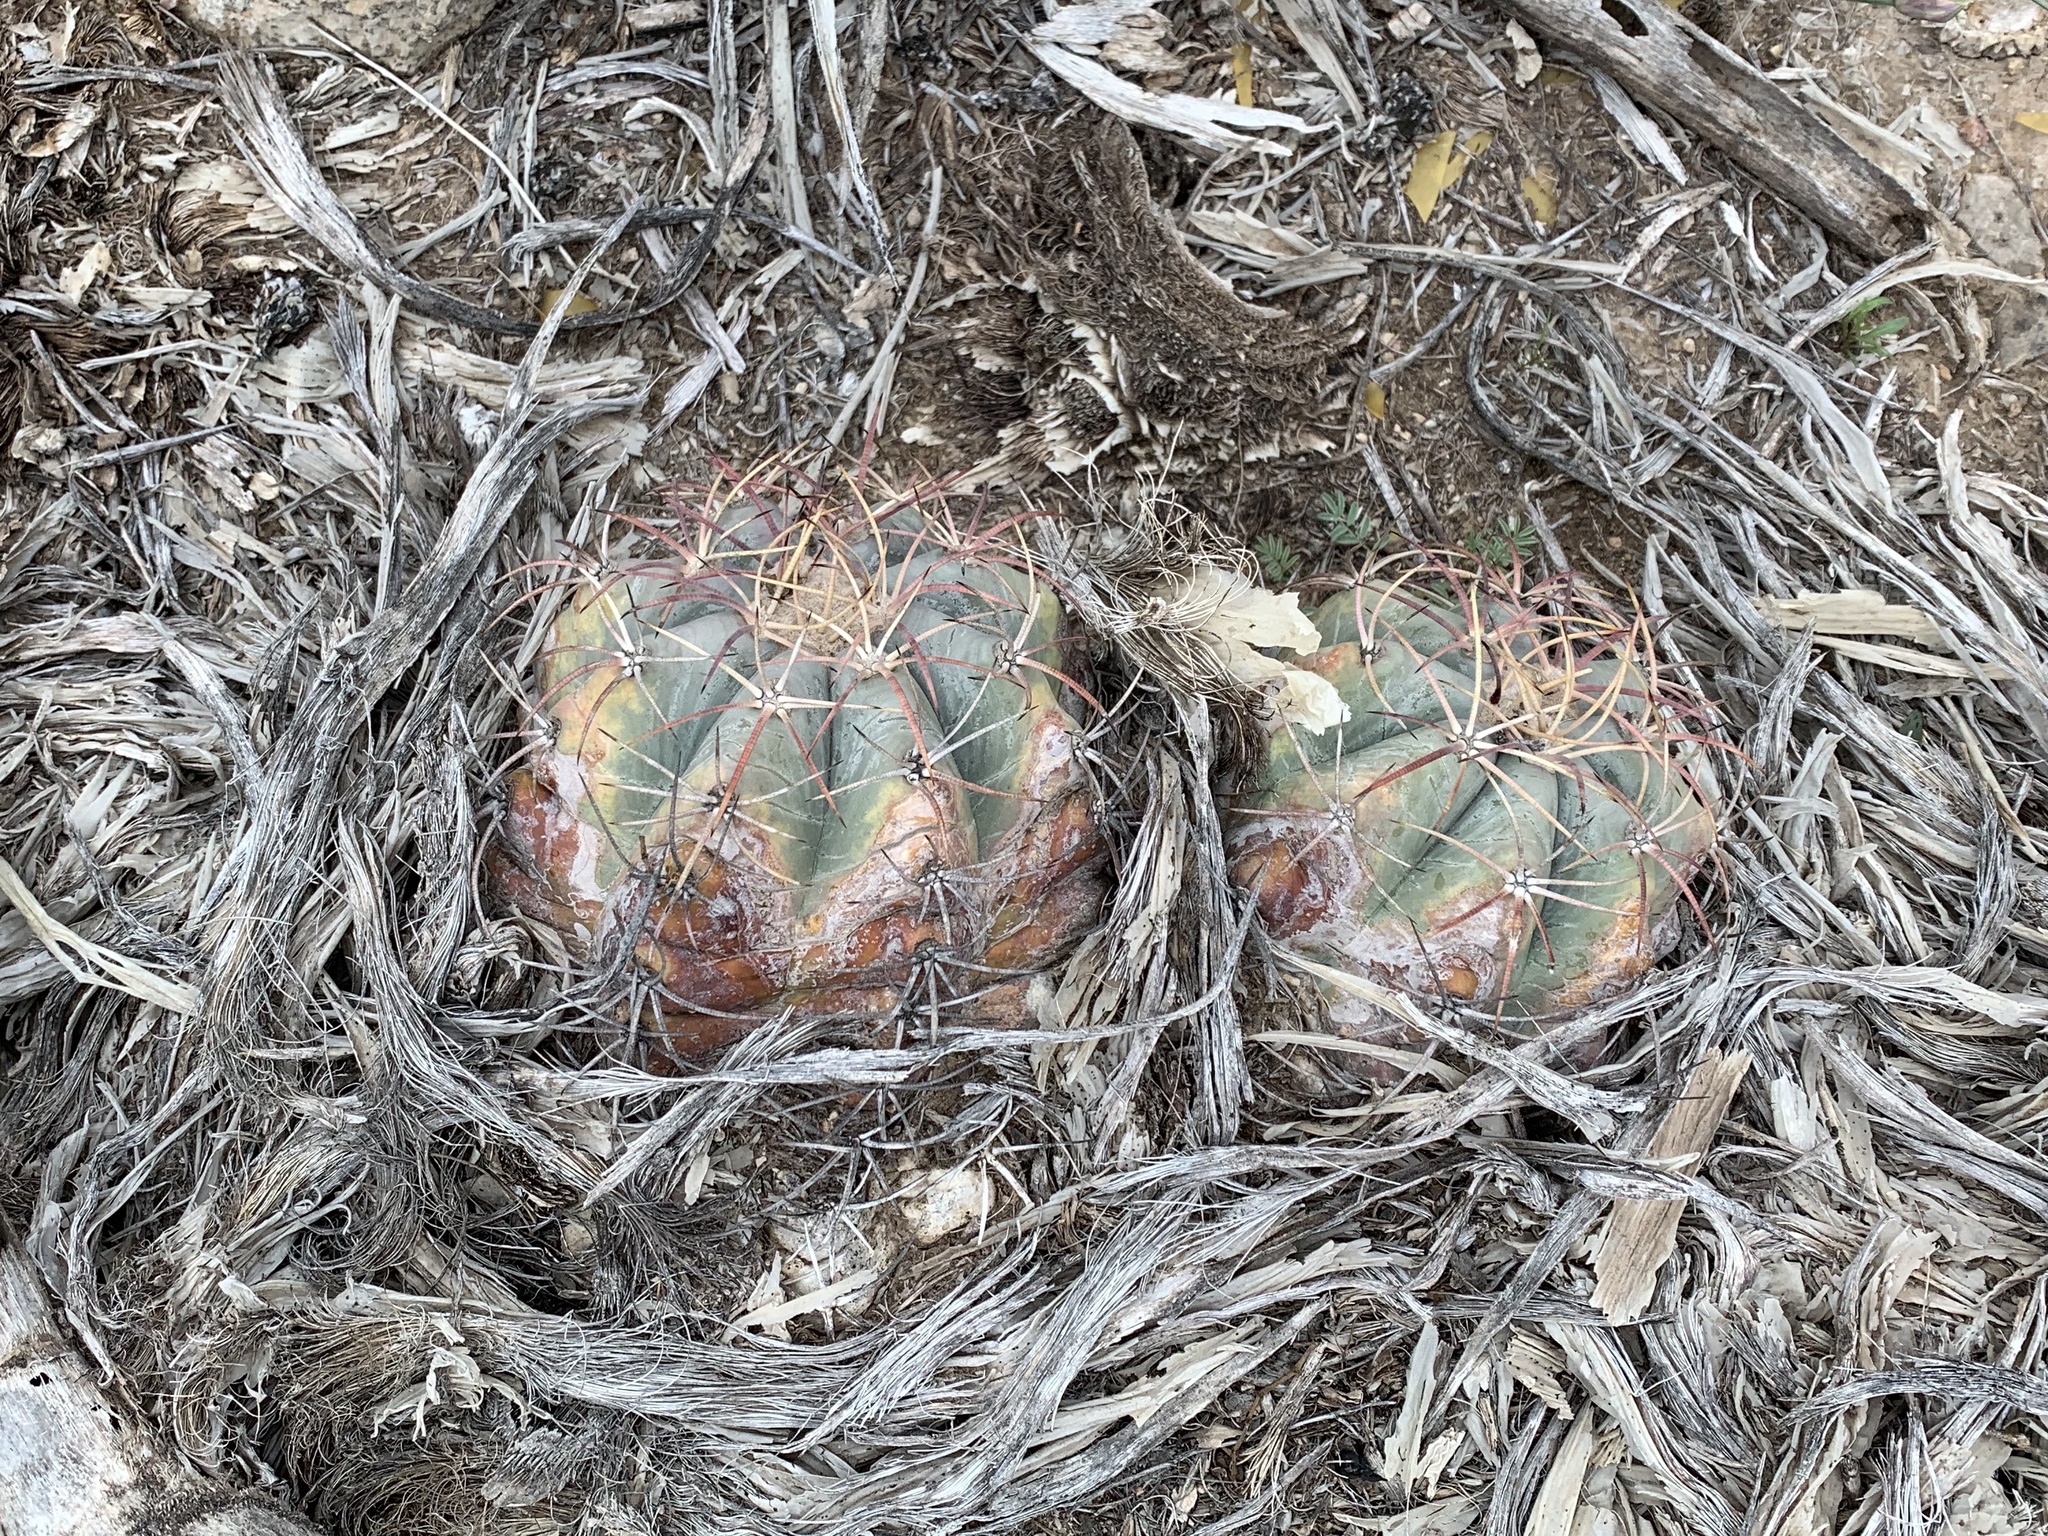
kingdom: Plantae
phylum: Tracheophyta
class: Magnoliopsida
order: Caryophyllales
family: Cactaceae
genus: Echinocactus
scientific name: Echinocactus horizonthalonius
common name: Devilshead
